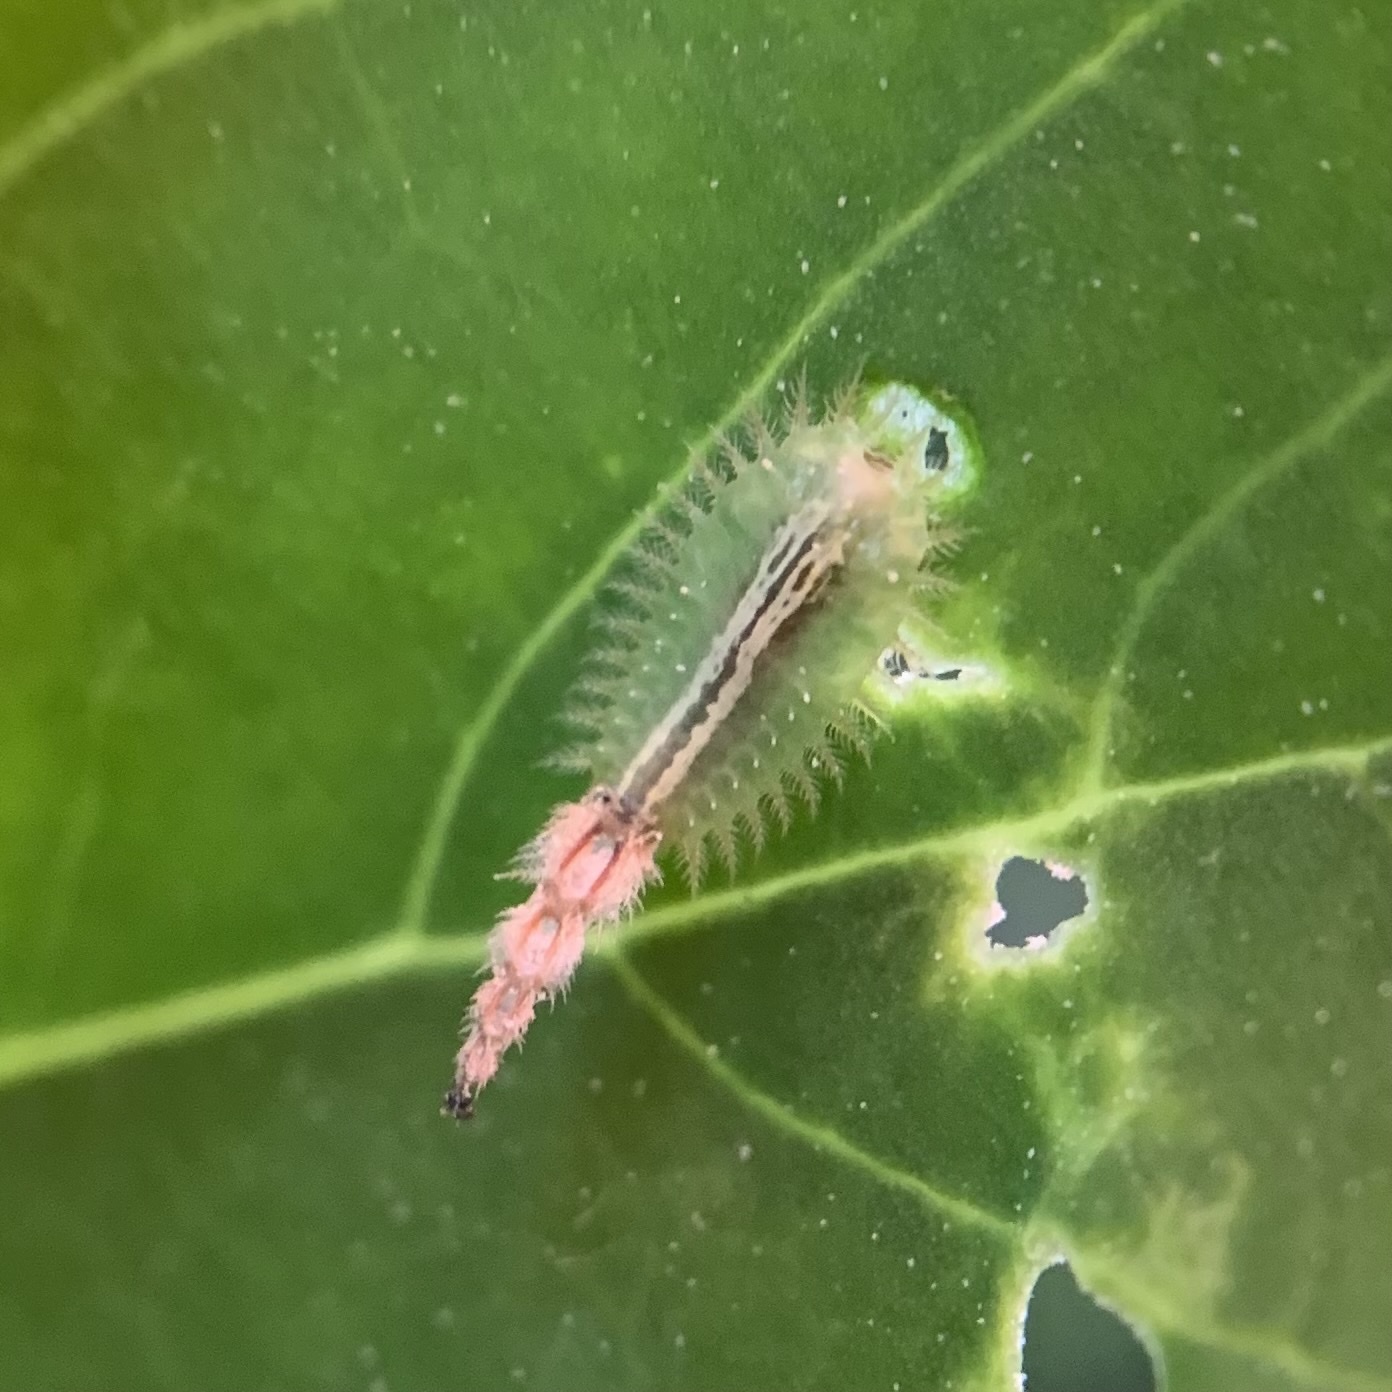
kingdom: Animalia
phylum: Arthropoda
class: Insecta
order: Coleoptera
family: Chrysomelidae
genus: Cassida
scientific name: Cassida piperata
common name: Small tortoise beetle
